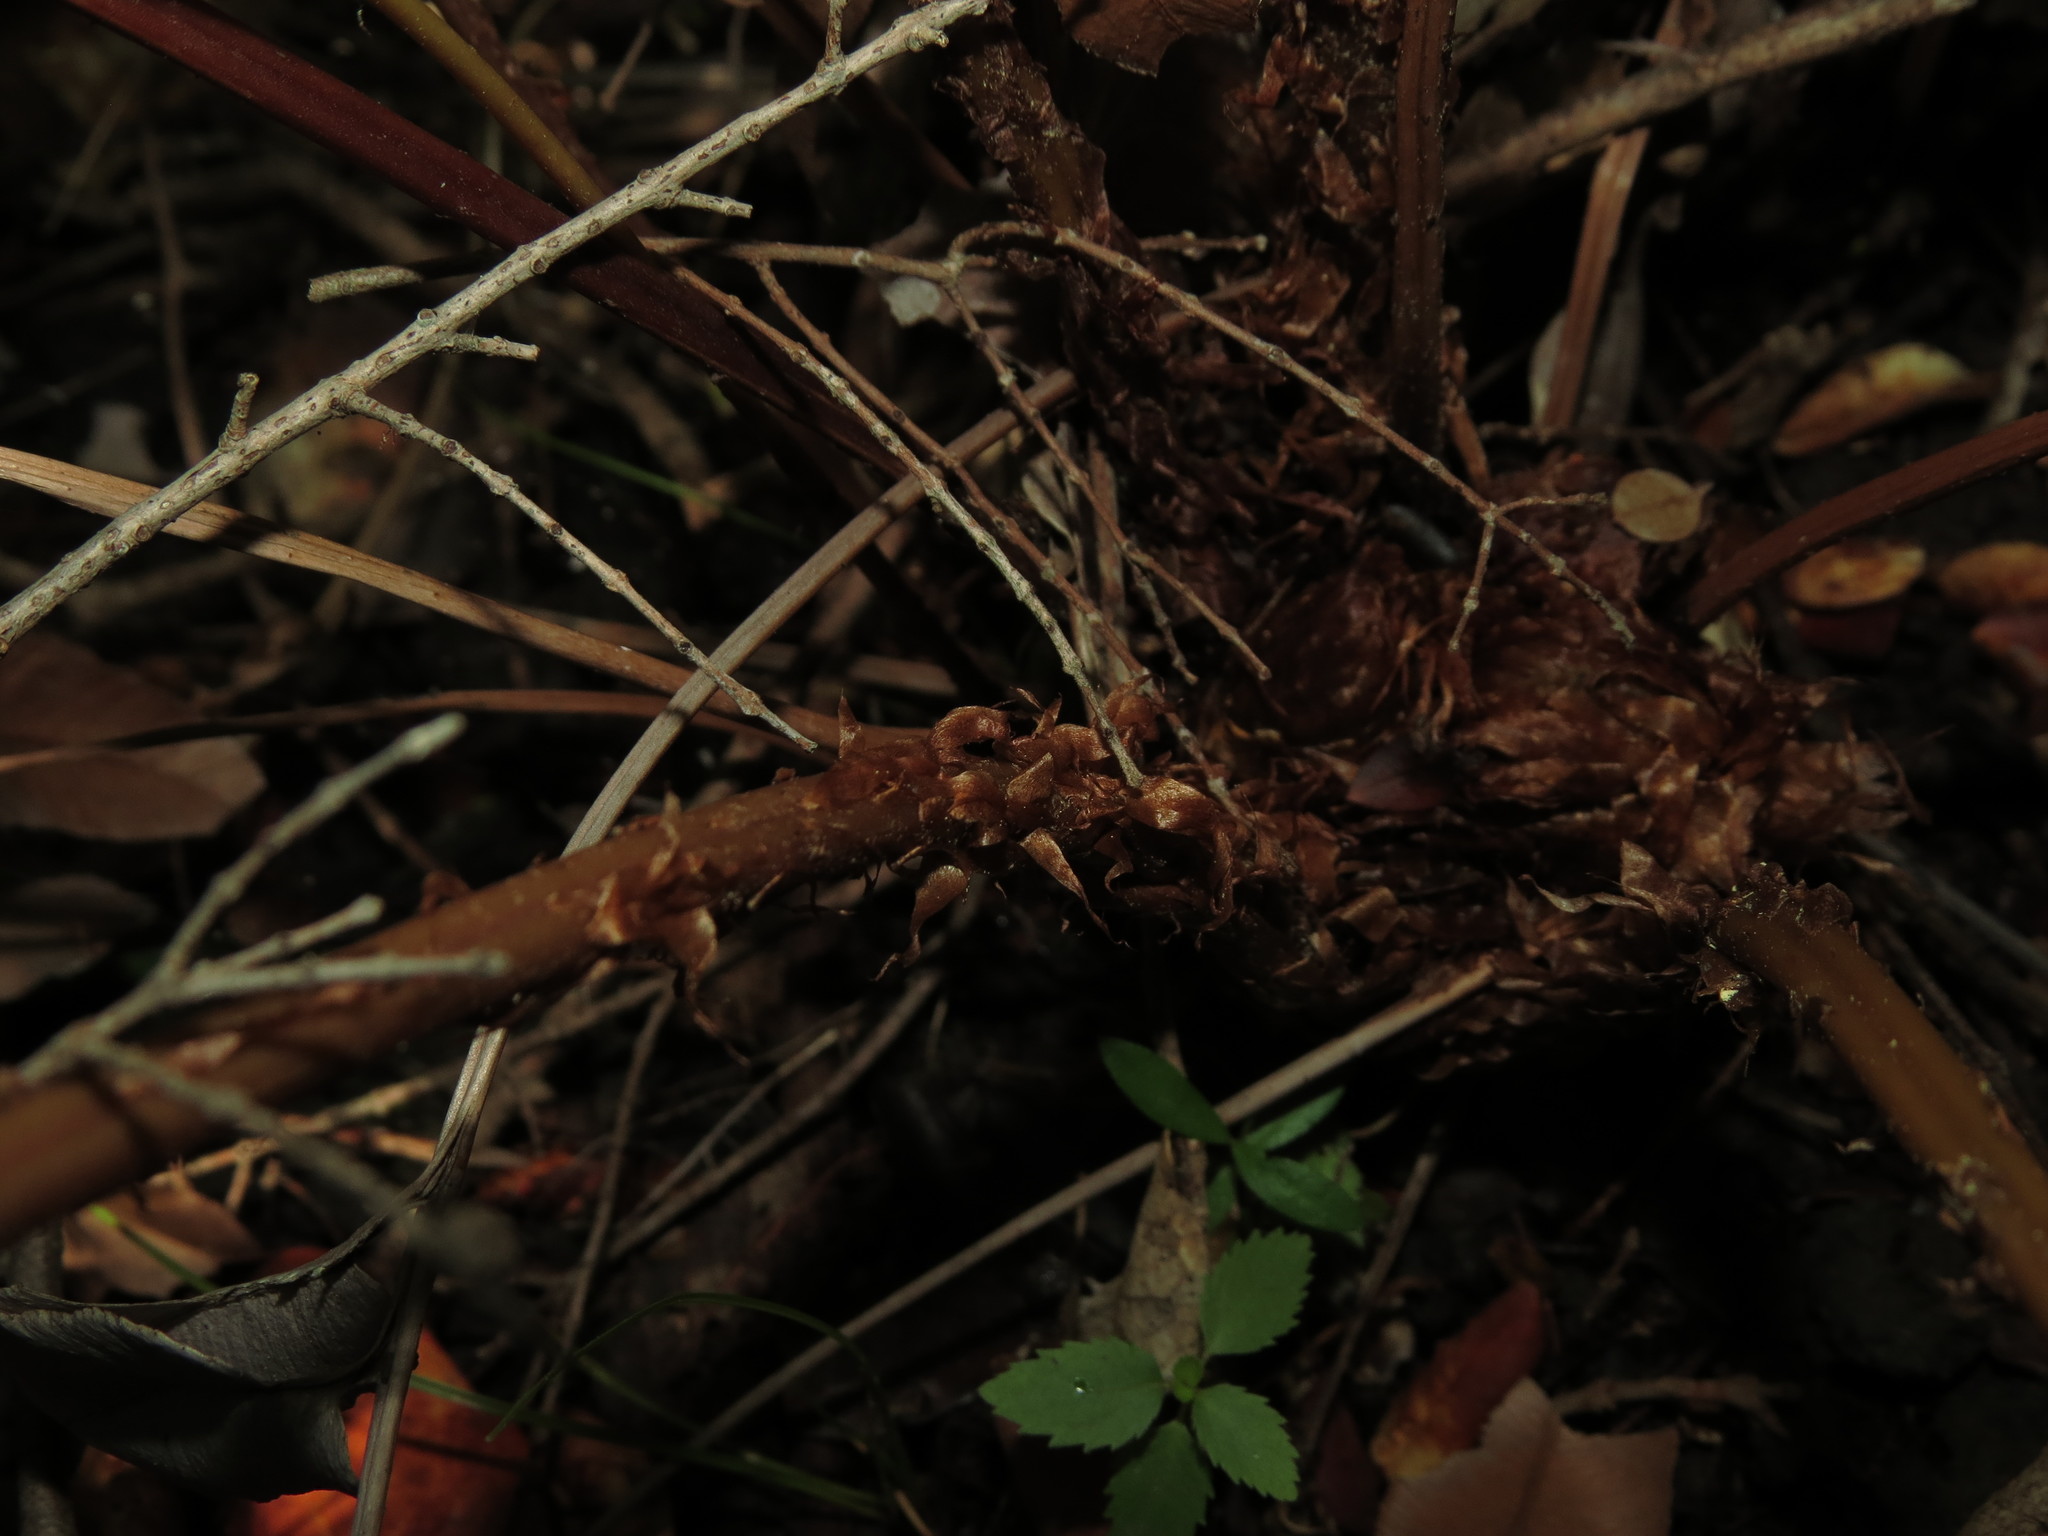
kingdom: Plantae
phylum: Tracheophyta
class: Polypodiopsida
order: Polypodiales
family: Blechnaceae
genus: Parablechnum
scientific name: Parablechnum chilense
